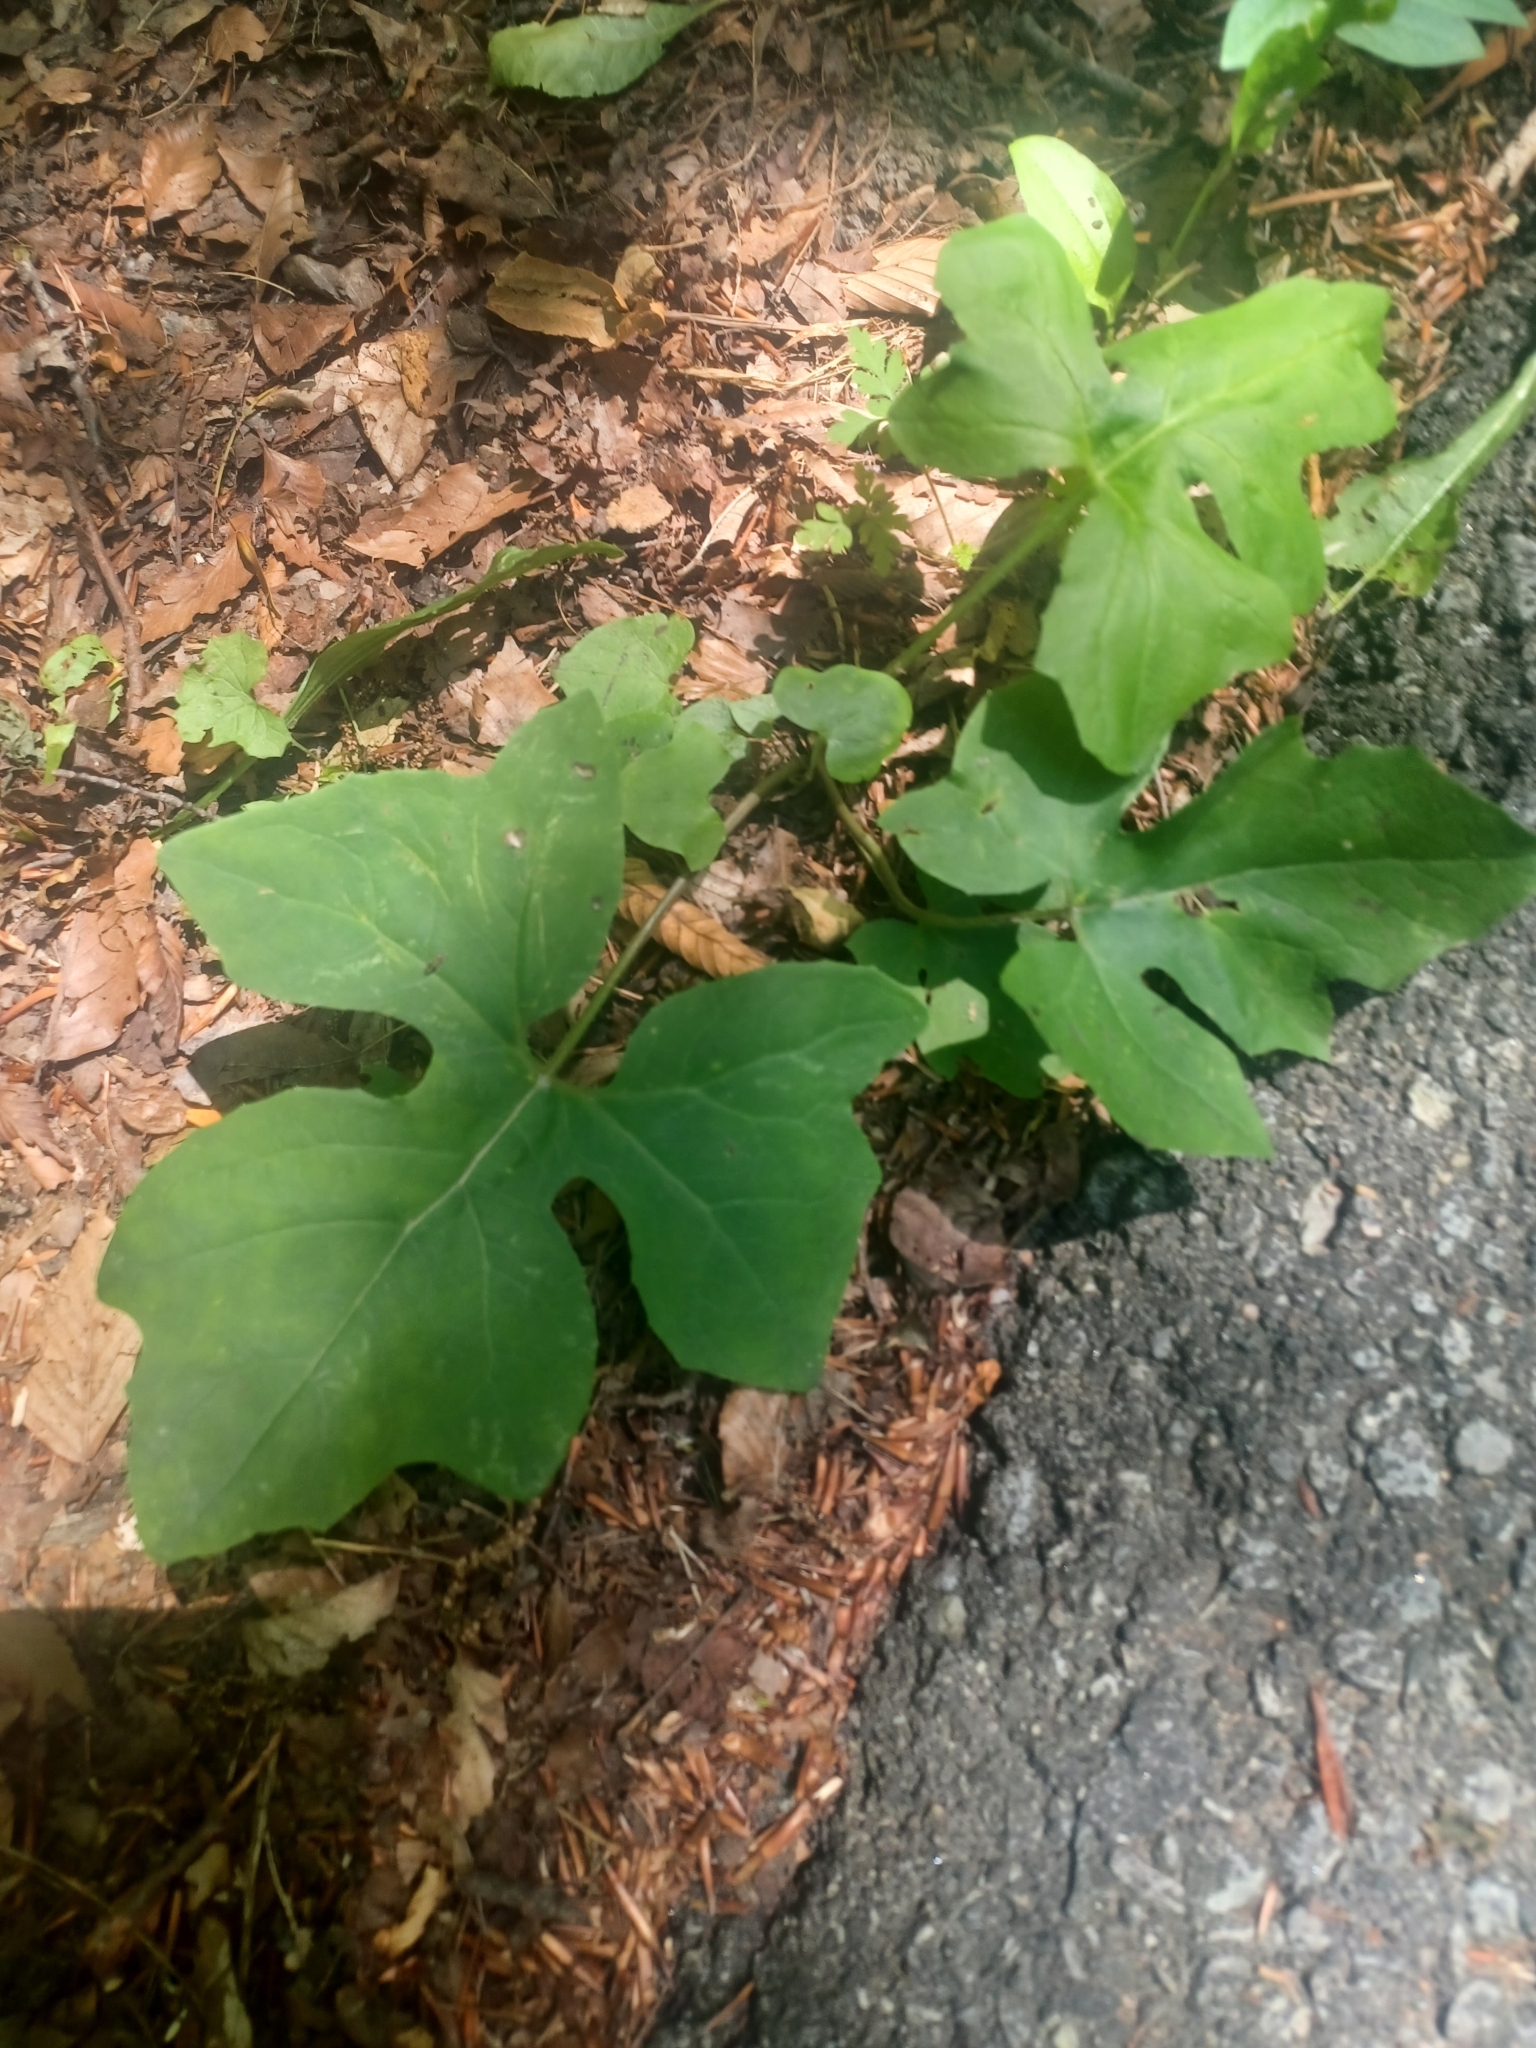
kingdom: Plantae
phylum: Tracheophyta
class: Magnoliopsida
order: Asterales
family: Asteraceae
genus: Nabalus
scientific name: Nabalus altissima
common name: Tall rattlesnakeroot
